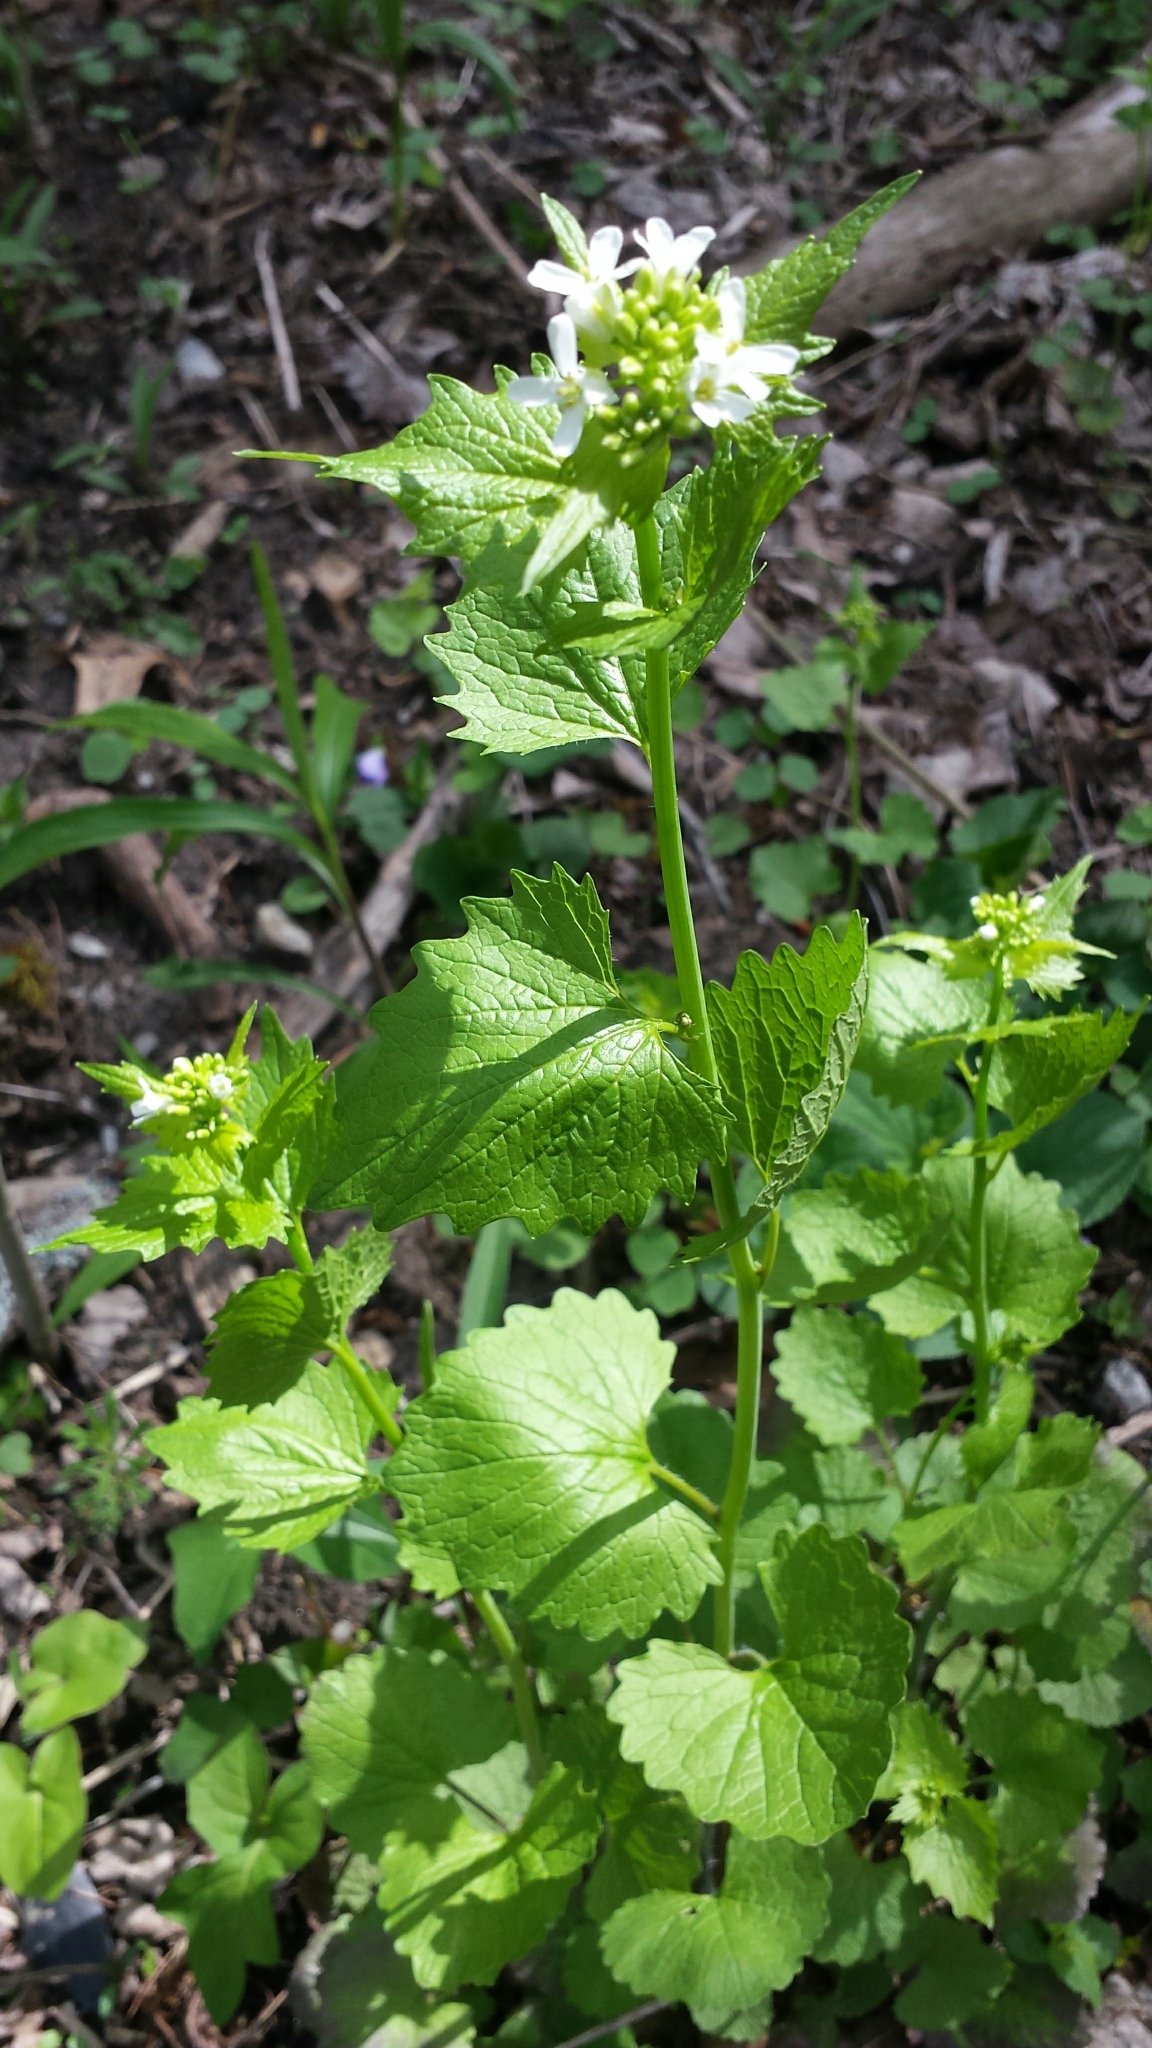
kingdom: Plantae
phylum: Tracheophyta
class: Magnoliopsida
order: Brassicales
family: Brassicaceae
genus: Alliaria
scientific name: Alliaria petiolata
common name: Garlic mustard
